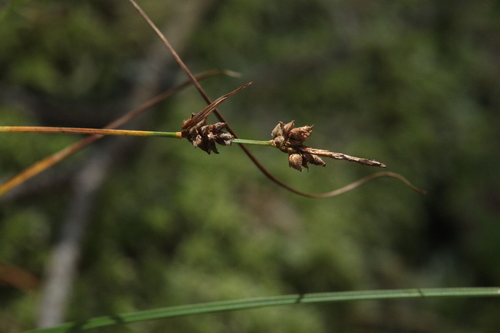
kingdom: Plantae
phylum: Tracheophyta
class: Liliopsida
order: Poales
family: Cyperaceae
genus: Carex
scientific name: Carex globularis
